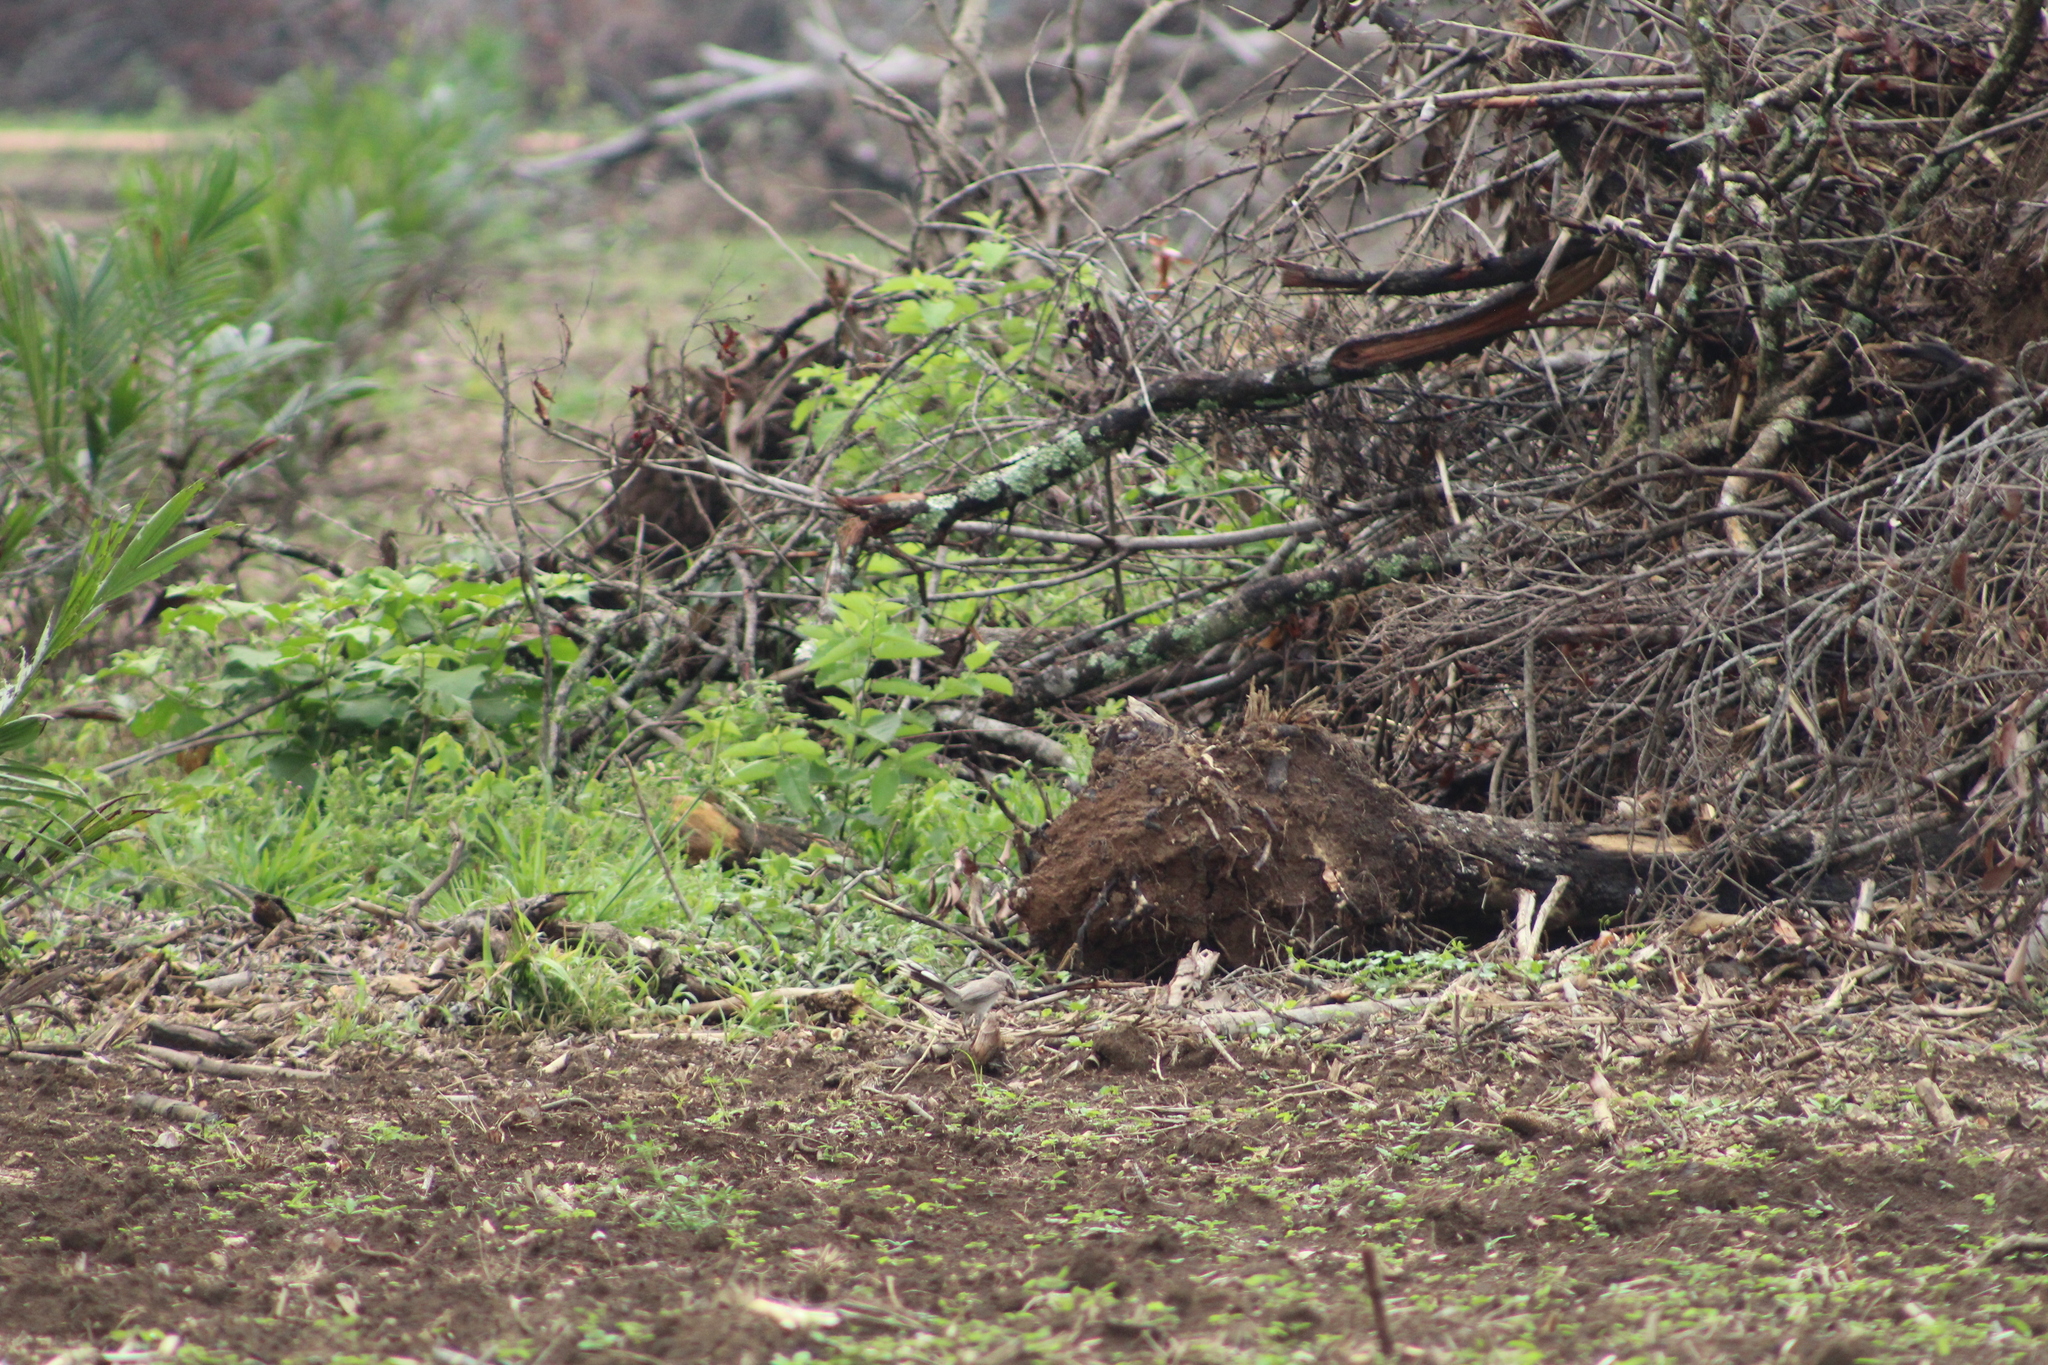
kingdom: Animalia
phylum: Chordata
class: Aves
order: Passeriformes
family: Mimidae
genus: Mimus
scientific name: Mimus gilvus
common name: Tropical mockingbird
